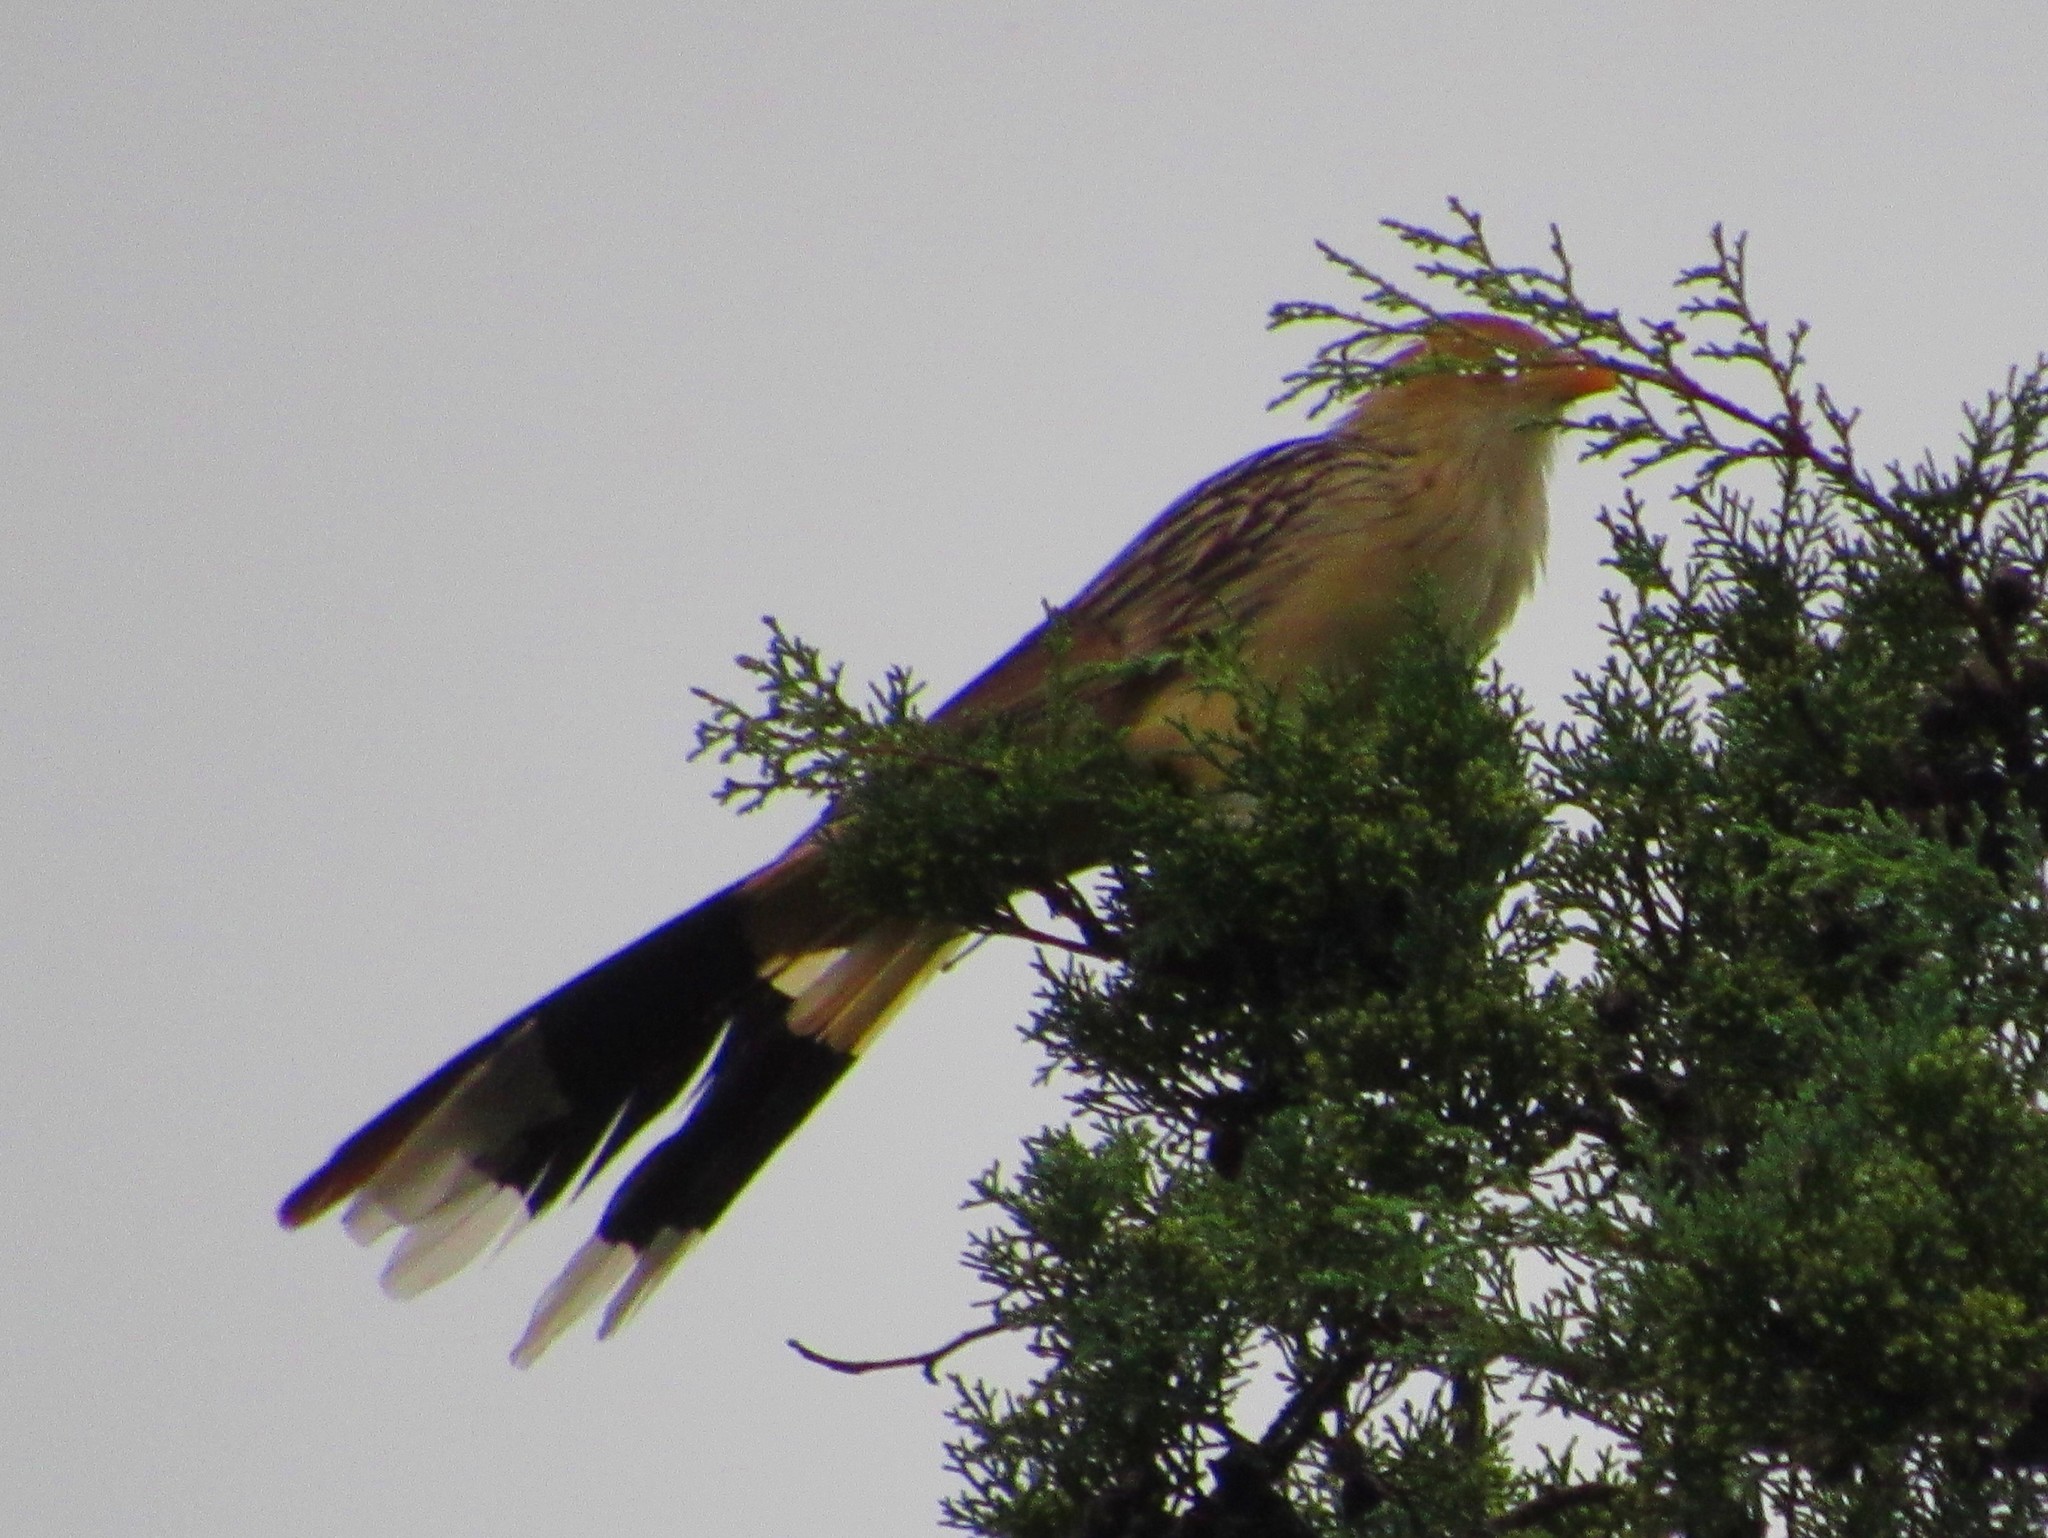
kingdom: Animalia
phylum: Chordata
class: Aves
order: Cuculiformes
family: Cuculidae
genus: Guira
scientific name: Guira guira
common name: Guira cuckoo
